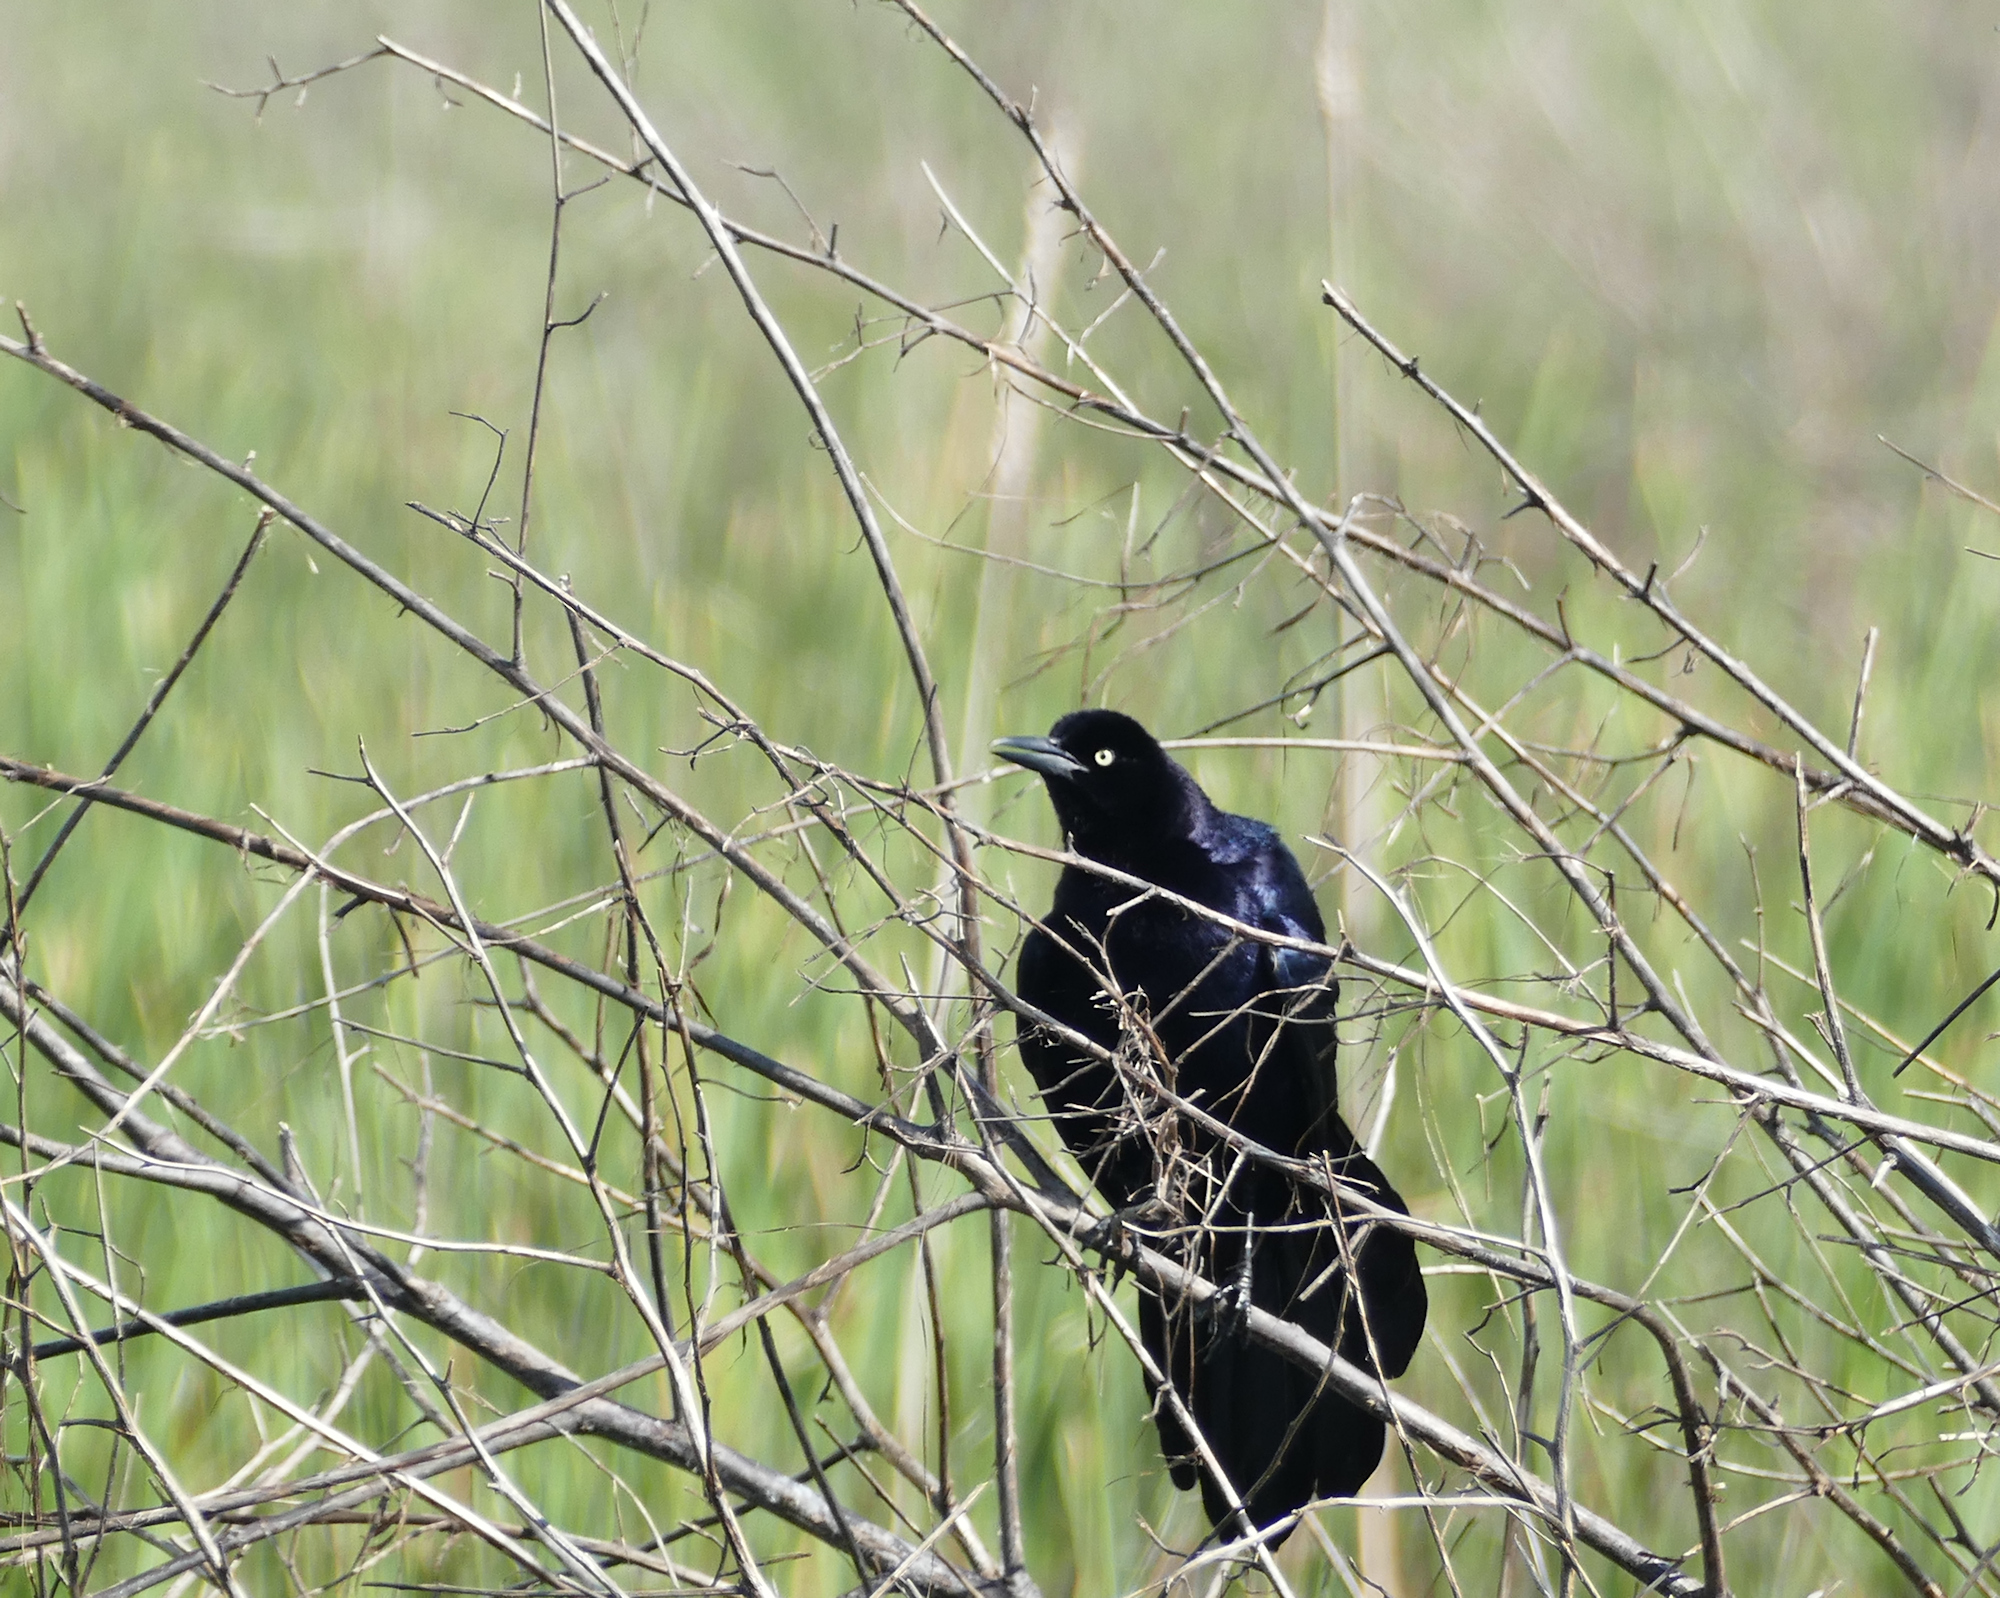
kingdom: Animalia
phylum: Chordata
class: Aves
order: Passeriformes
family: Icteridae
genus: Quiscalus
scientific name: Quiscalus mexicanus
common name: Great-tailed grackle
